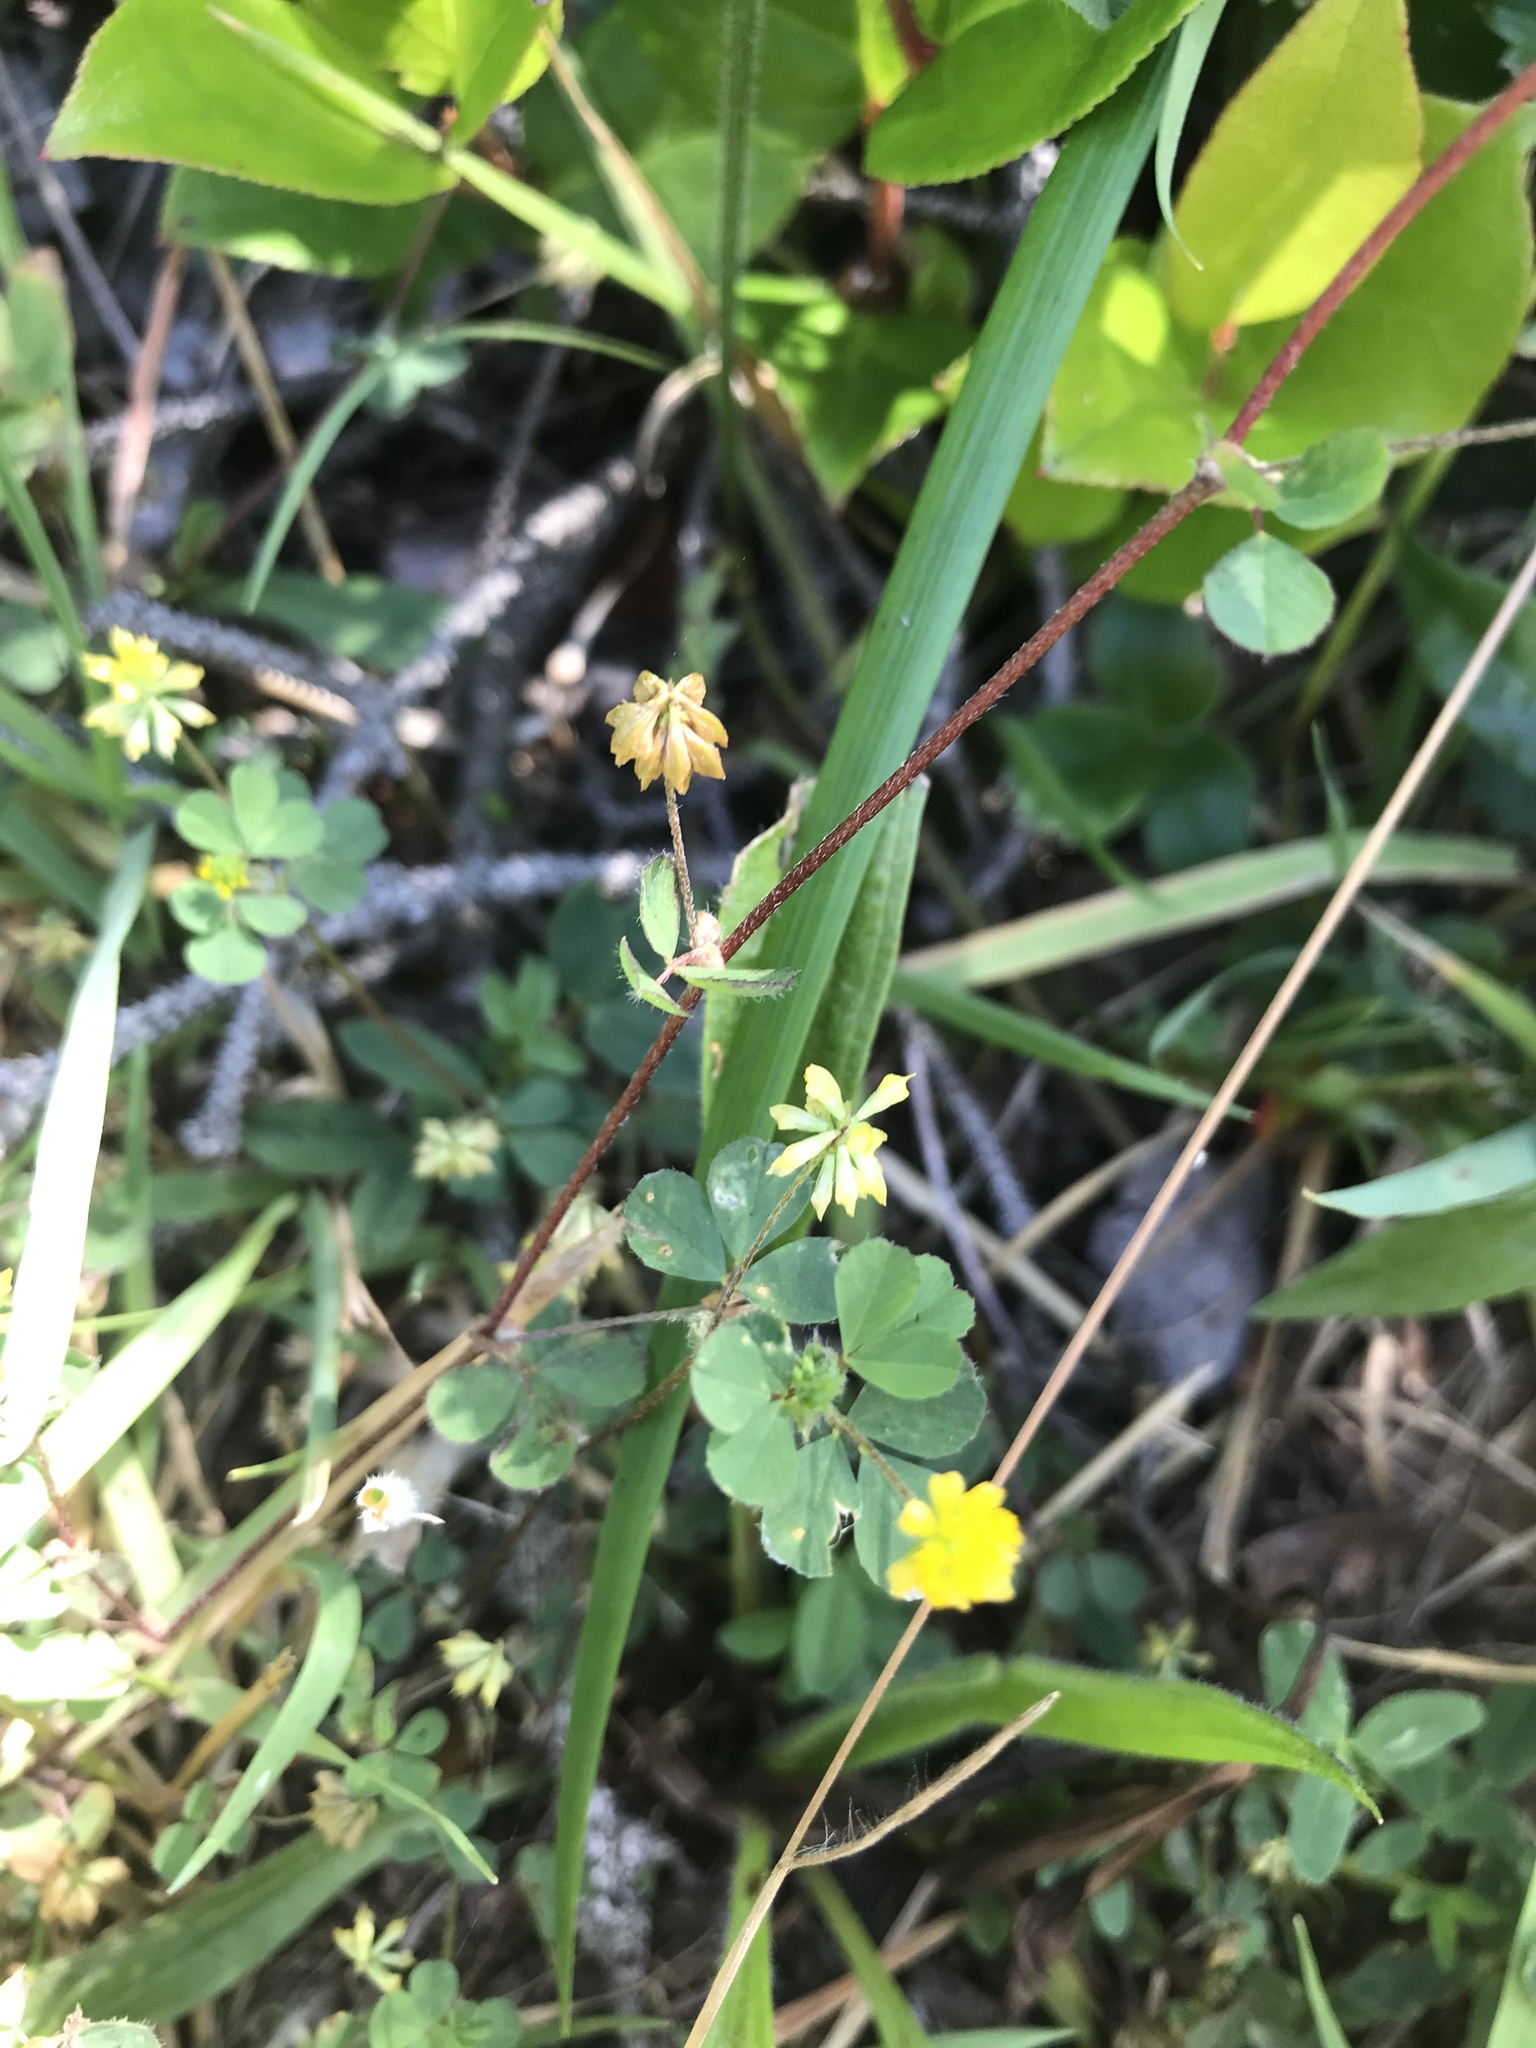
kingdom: Plantae
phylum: Tracheophyta
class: Magnoliopsida
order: Fabales
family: Fabaceae
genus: Trifolium
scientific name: Trifolium dubium
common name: Suckling clover
